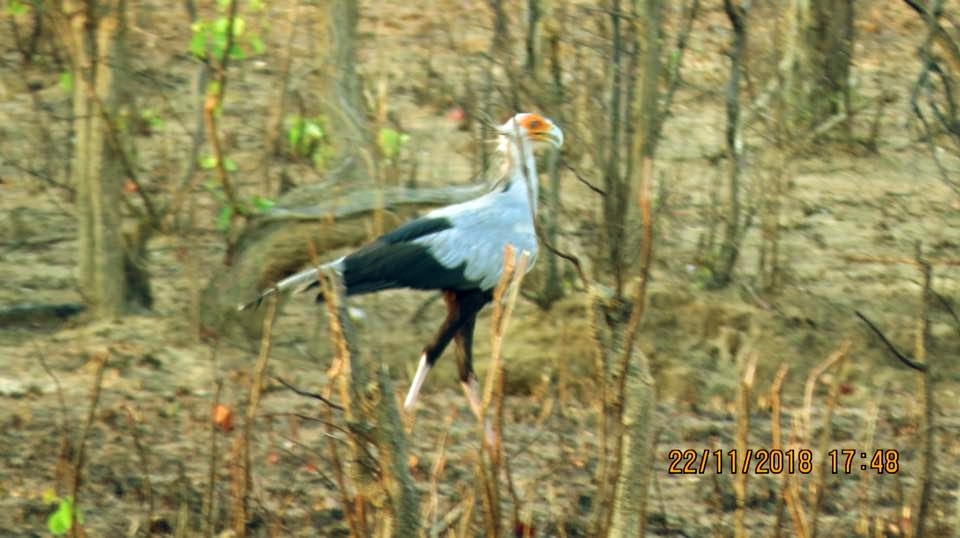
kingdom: Animalia
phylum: Chordata
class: Aves
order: Accipitriformes
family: Sagittariidae
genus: Sagittarius
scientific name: Sagittarius serpentarius
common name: Secretarybird
